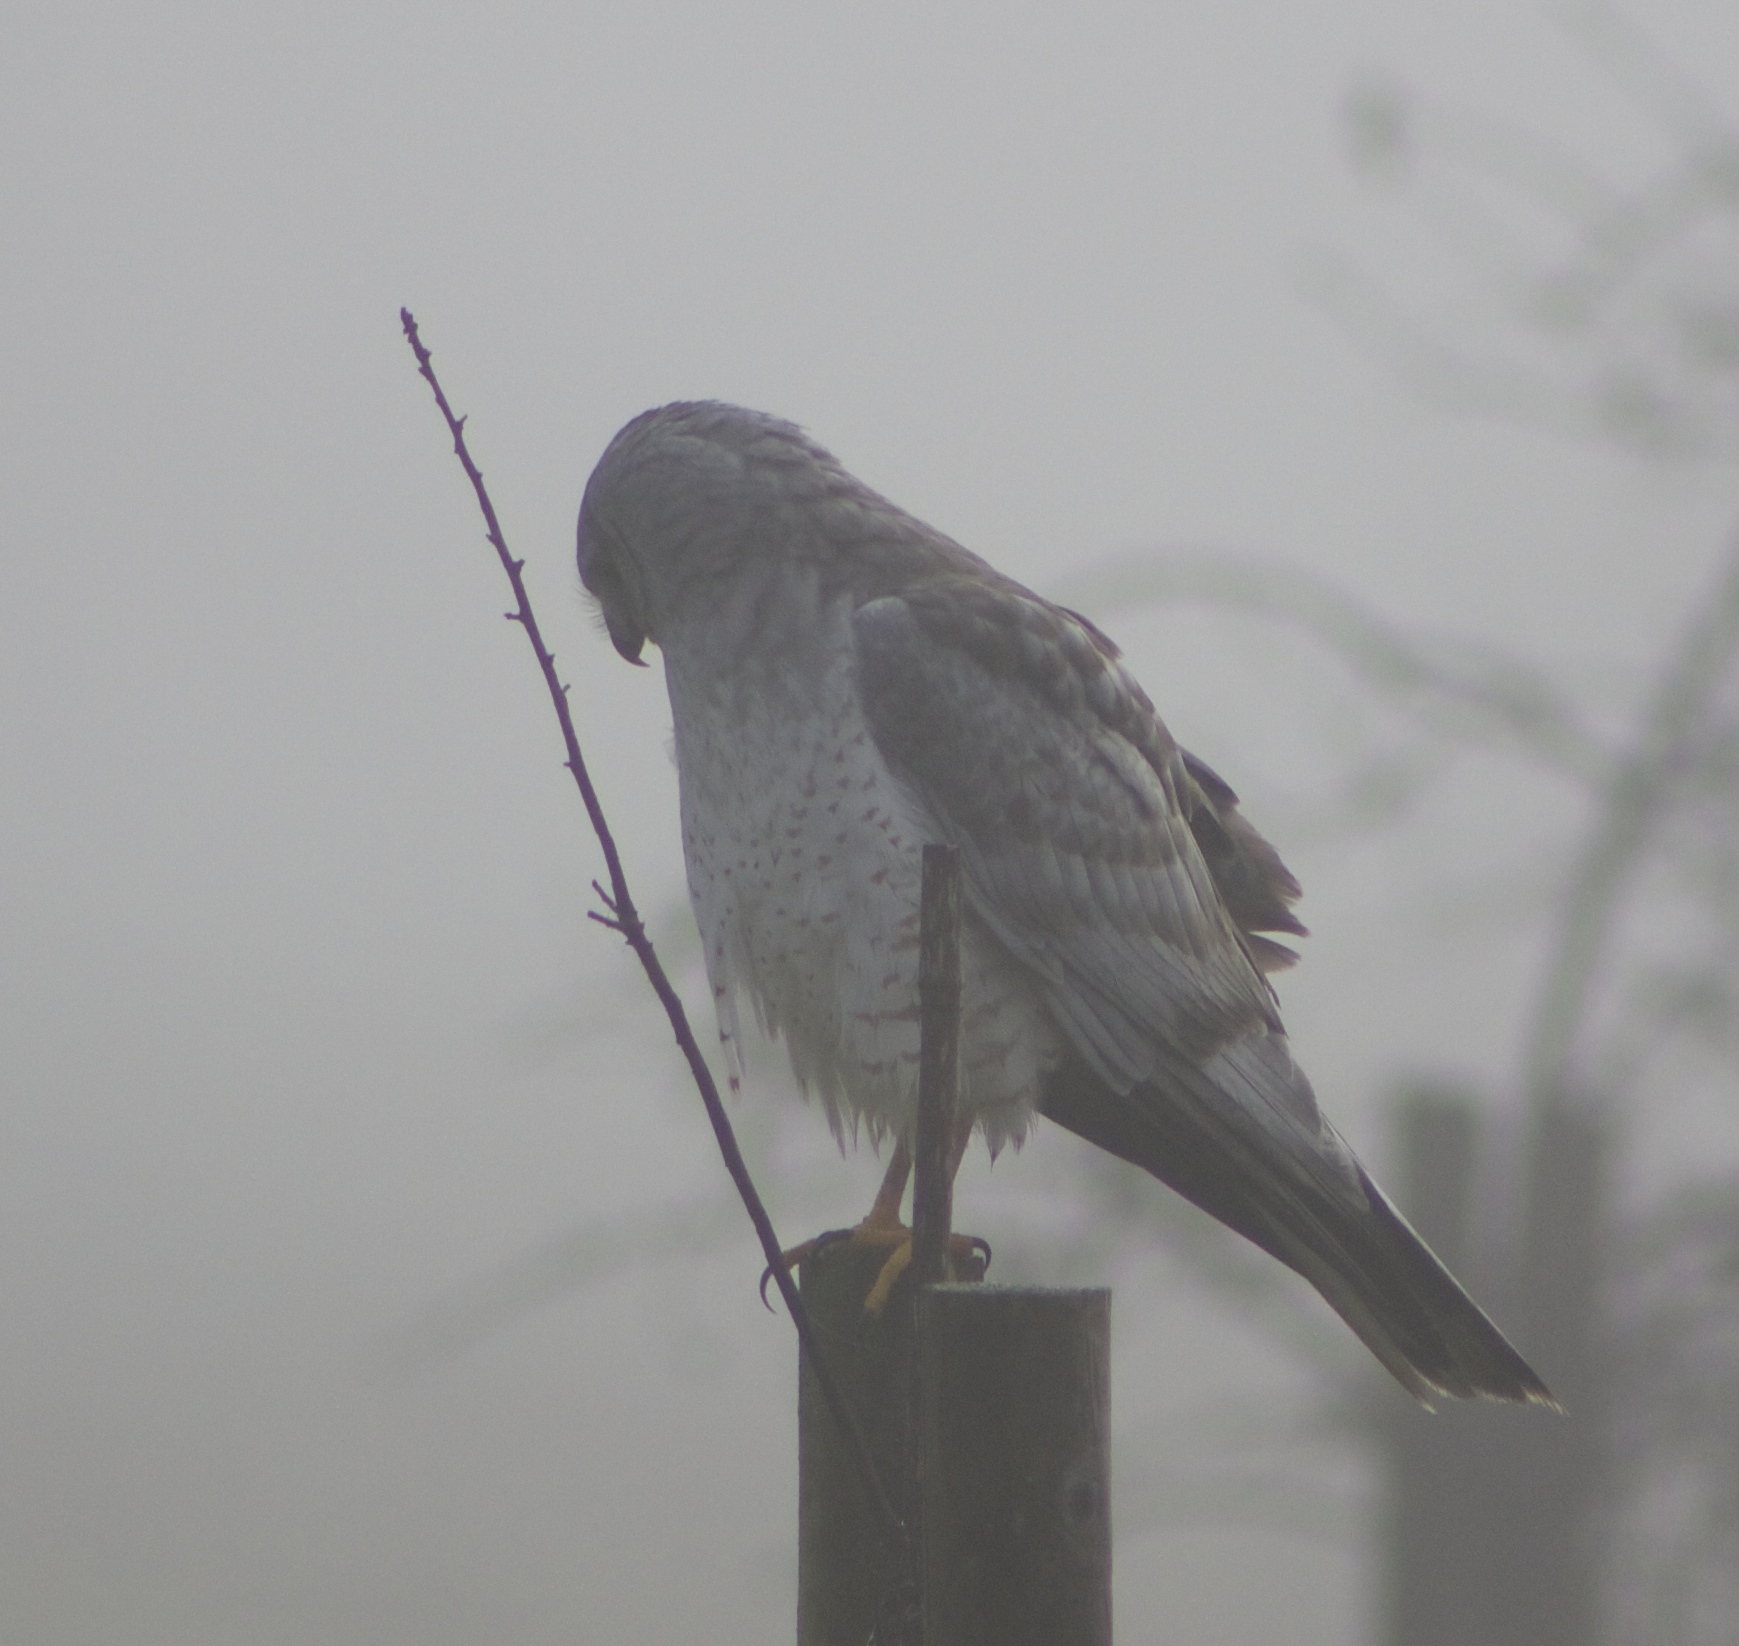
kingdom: Animalia
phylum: Chordata
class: Aves
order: Accipitriformes
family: Accipitridae
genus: Circus
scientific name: Circus cyaneus
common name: Hen harrier
